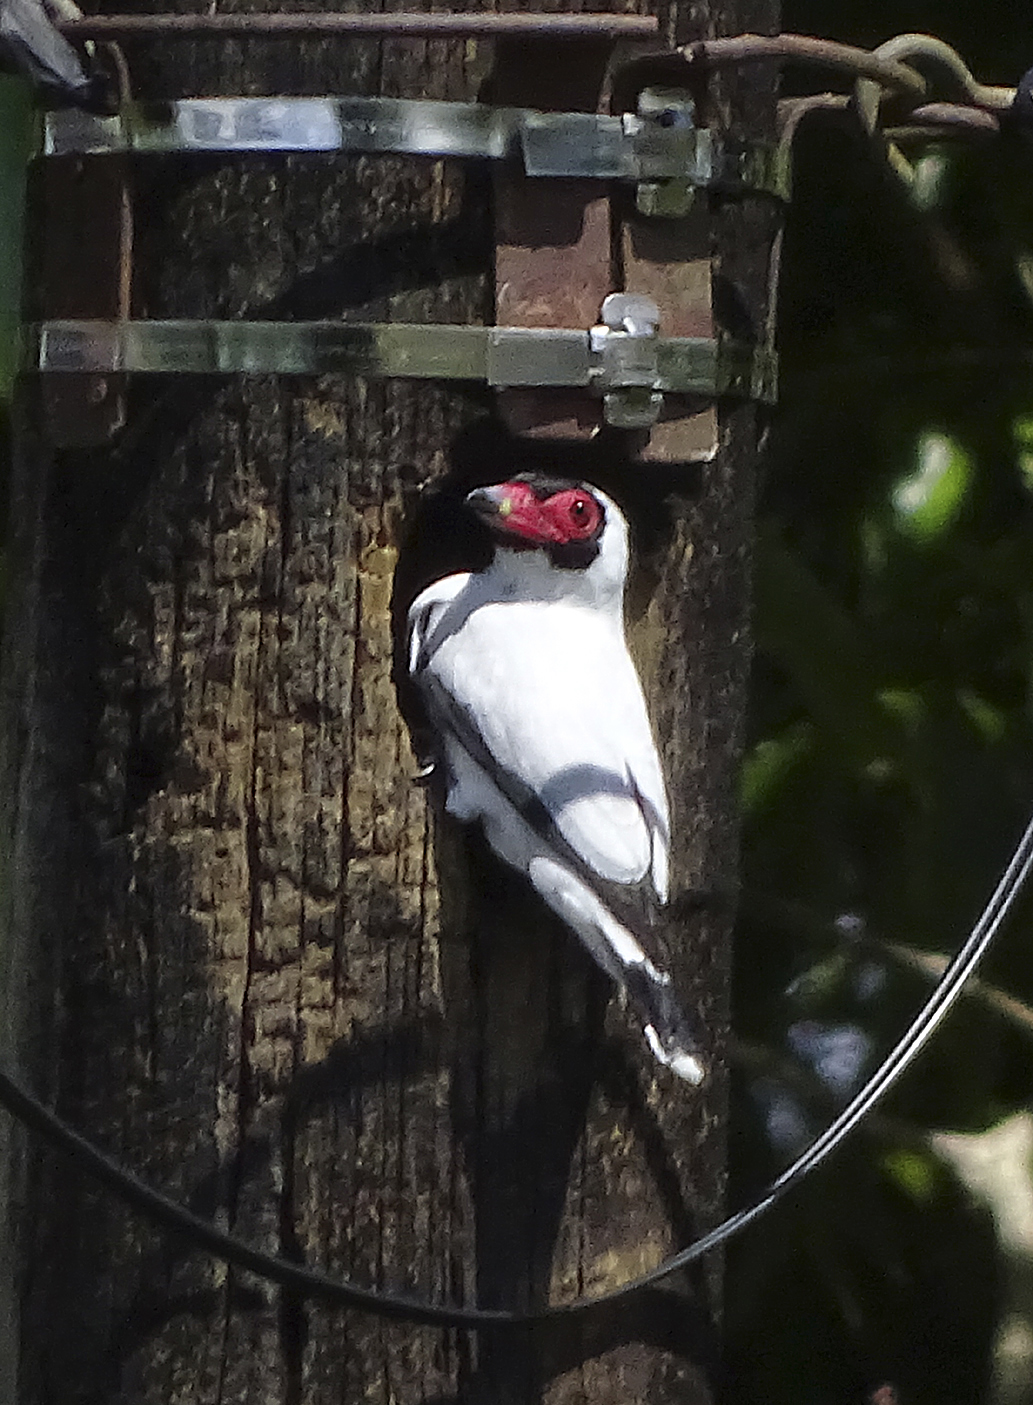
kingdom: Animalia
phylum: Chordata
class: Aves
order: Passeriformes
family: Cotingidae
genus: Tityra
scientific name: Tityra semifasciata
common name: Masked tityra
